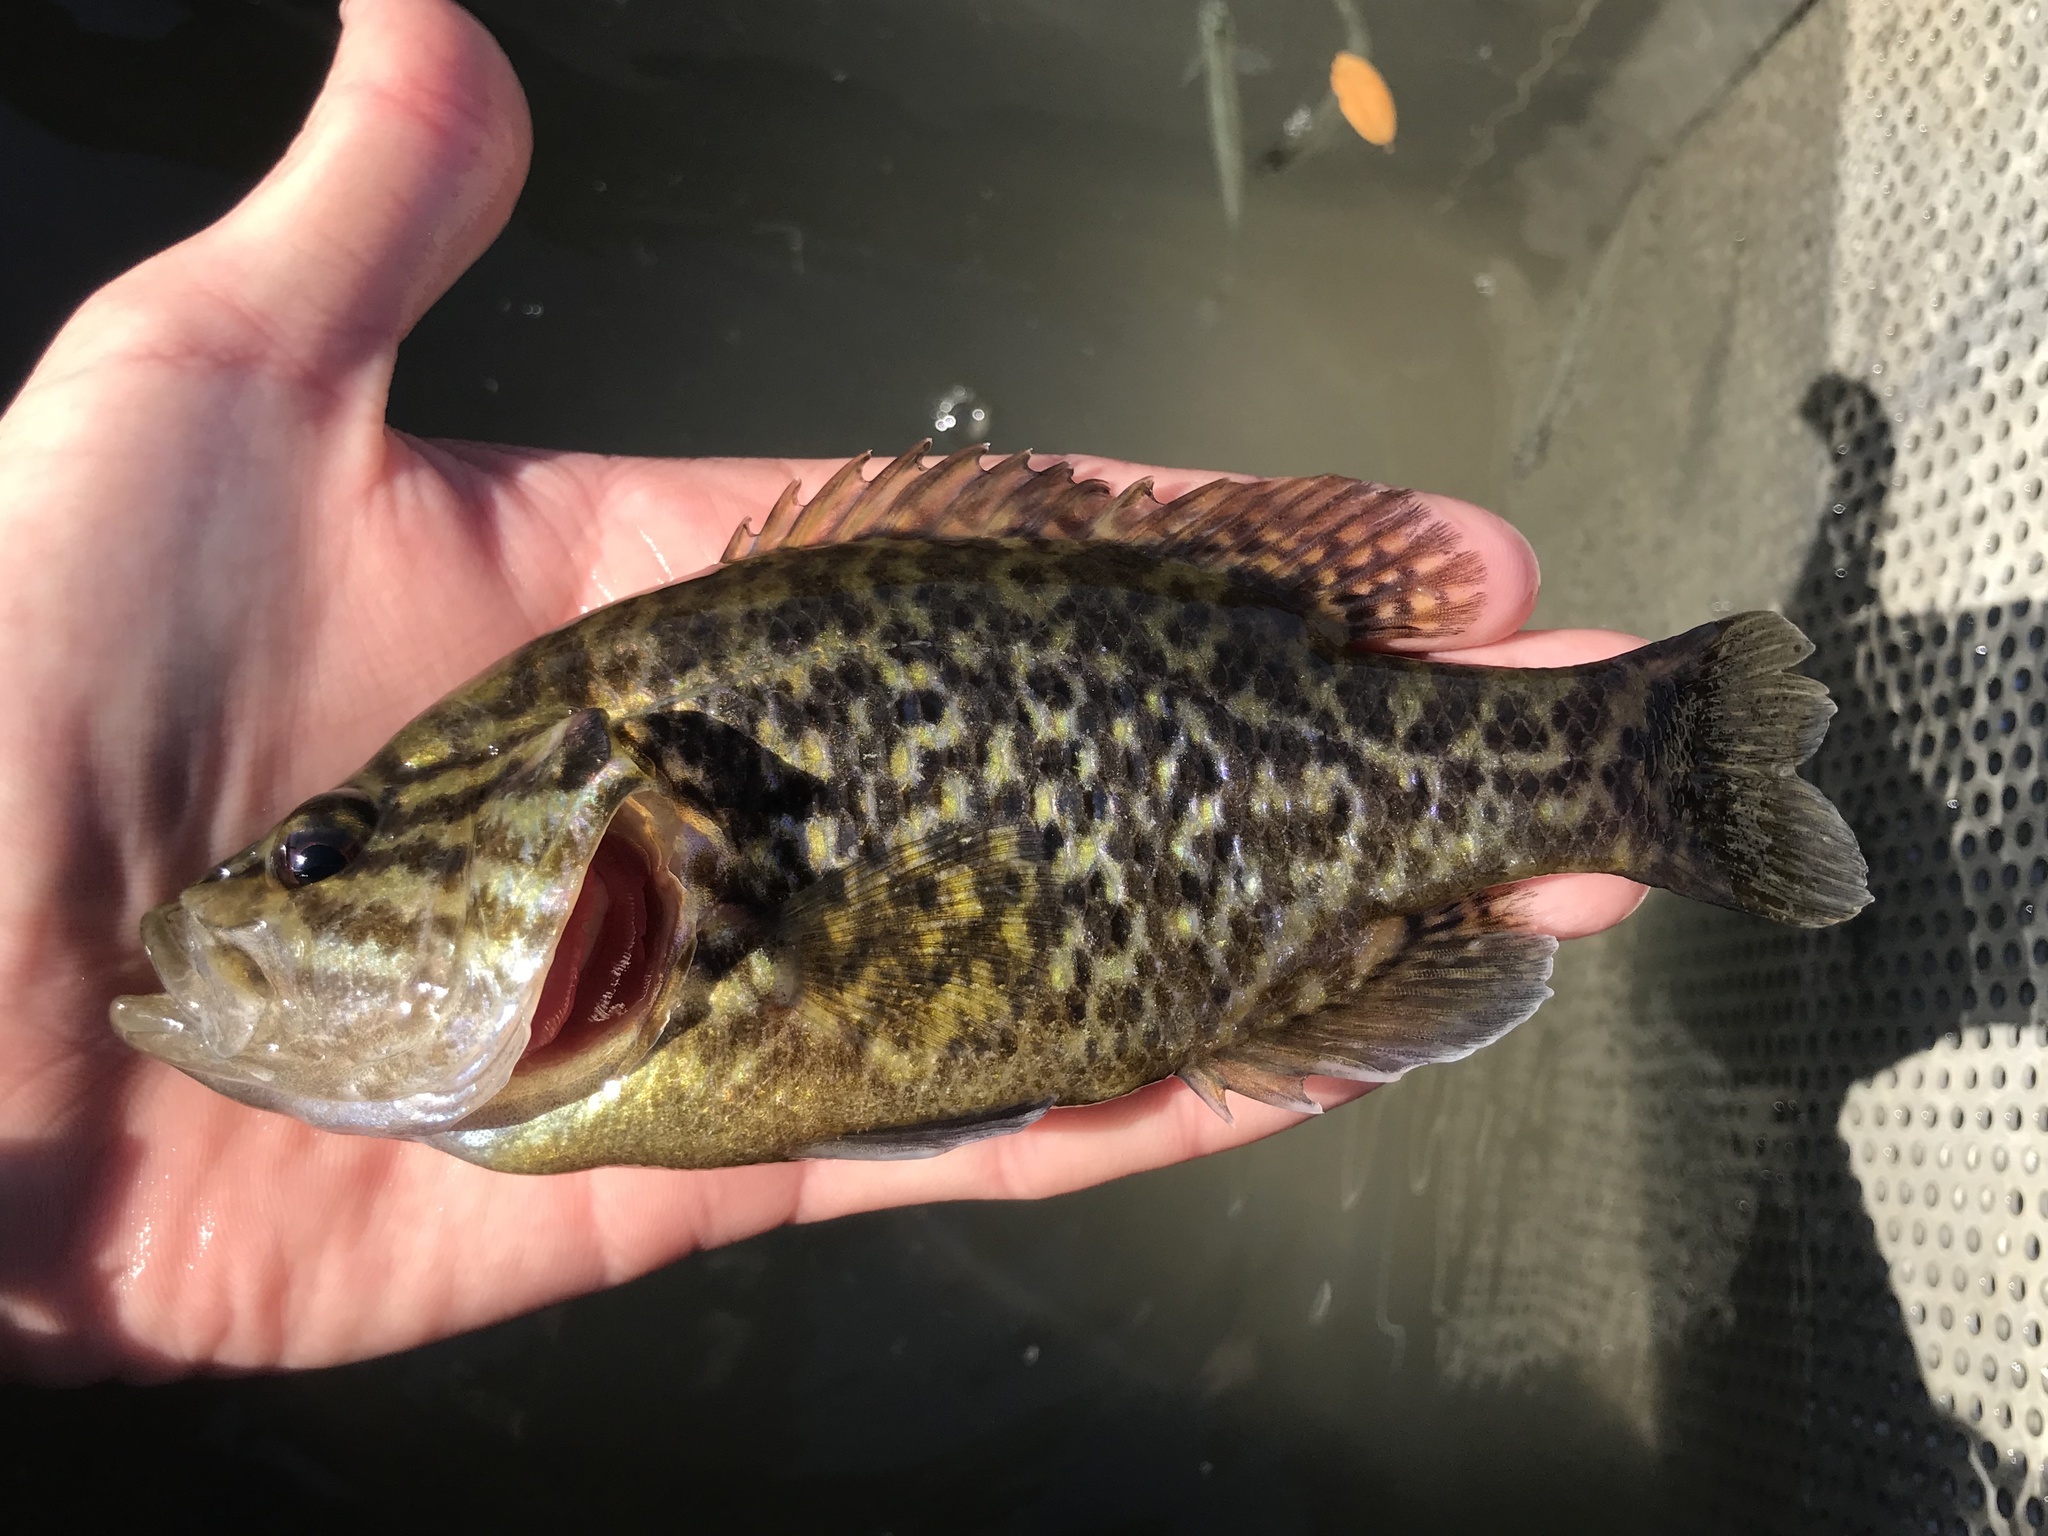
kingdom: Animalia
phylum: Chordata
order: Perciformes
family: Centrarchidae
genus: Lepomis
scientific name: Lepomis gulosus
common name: Warmouth
